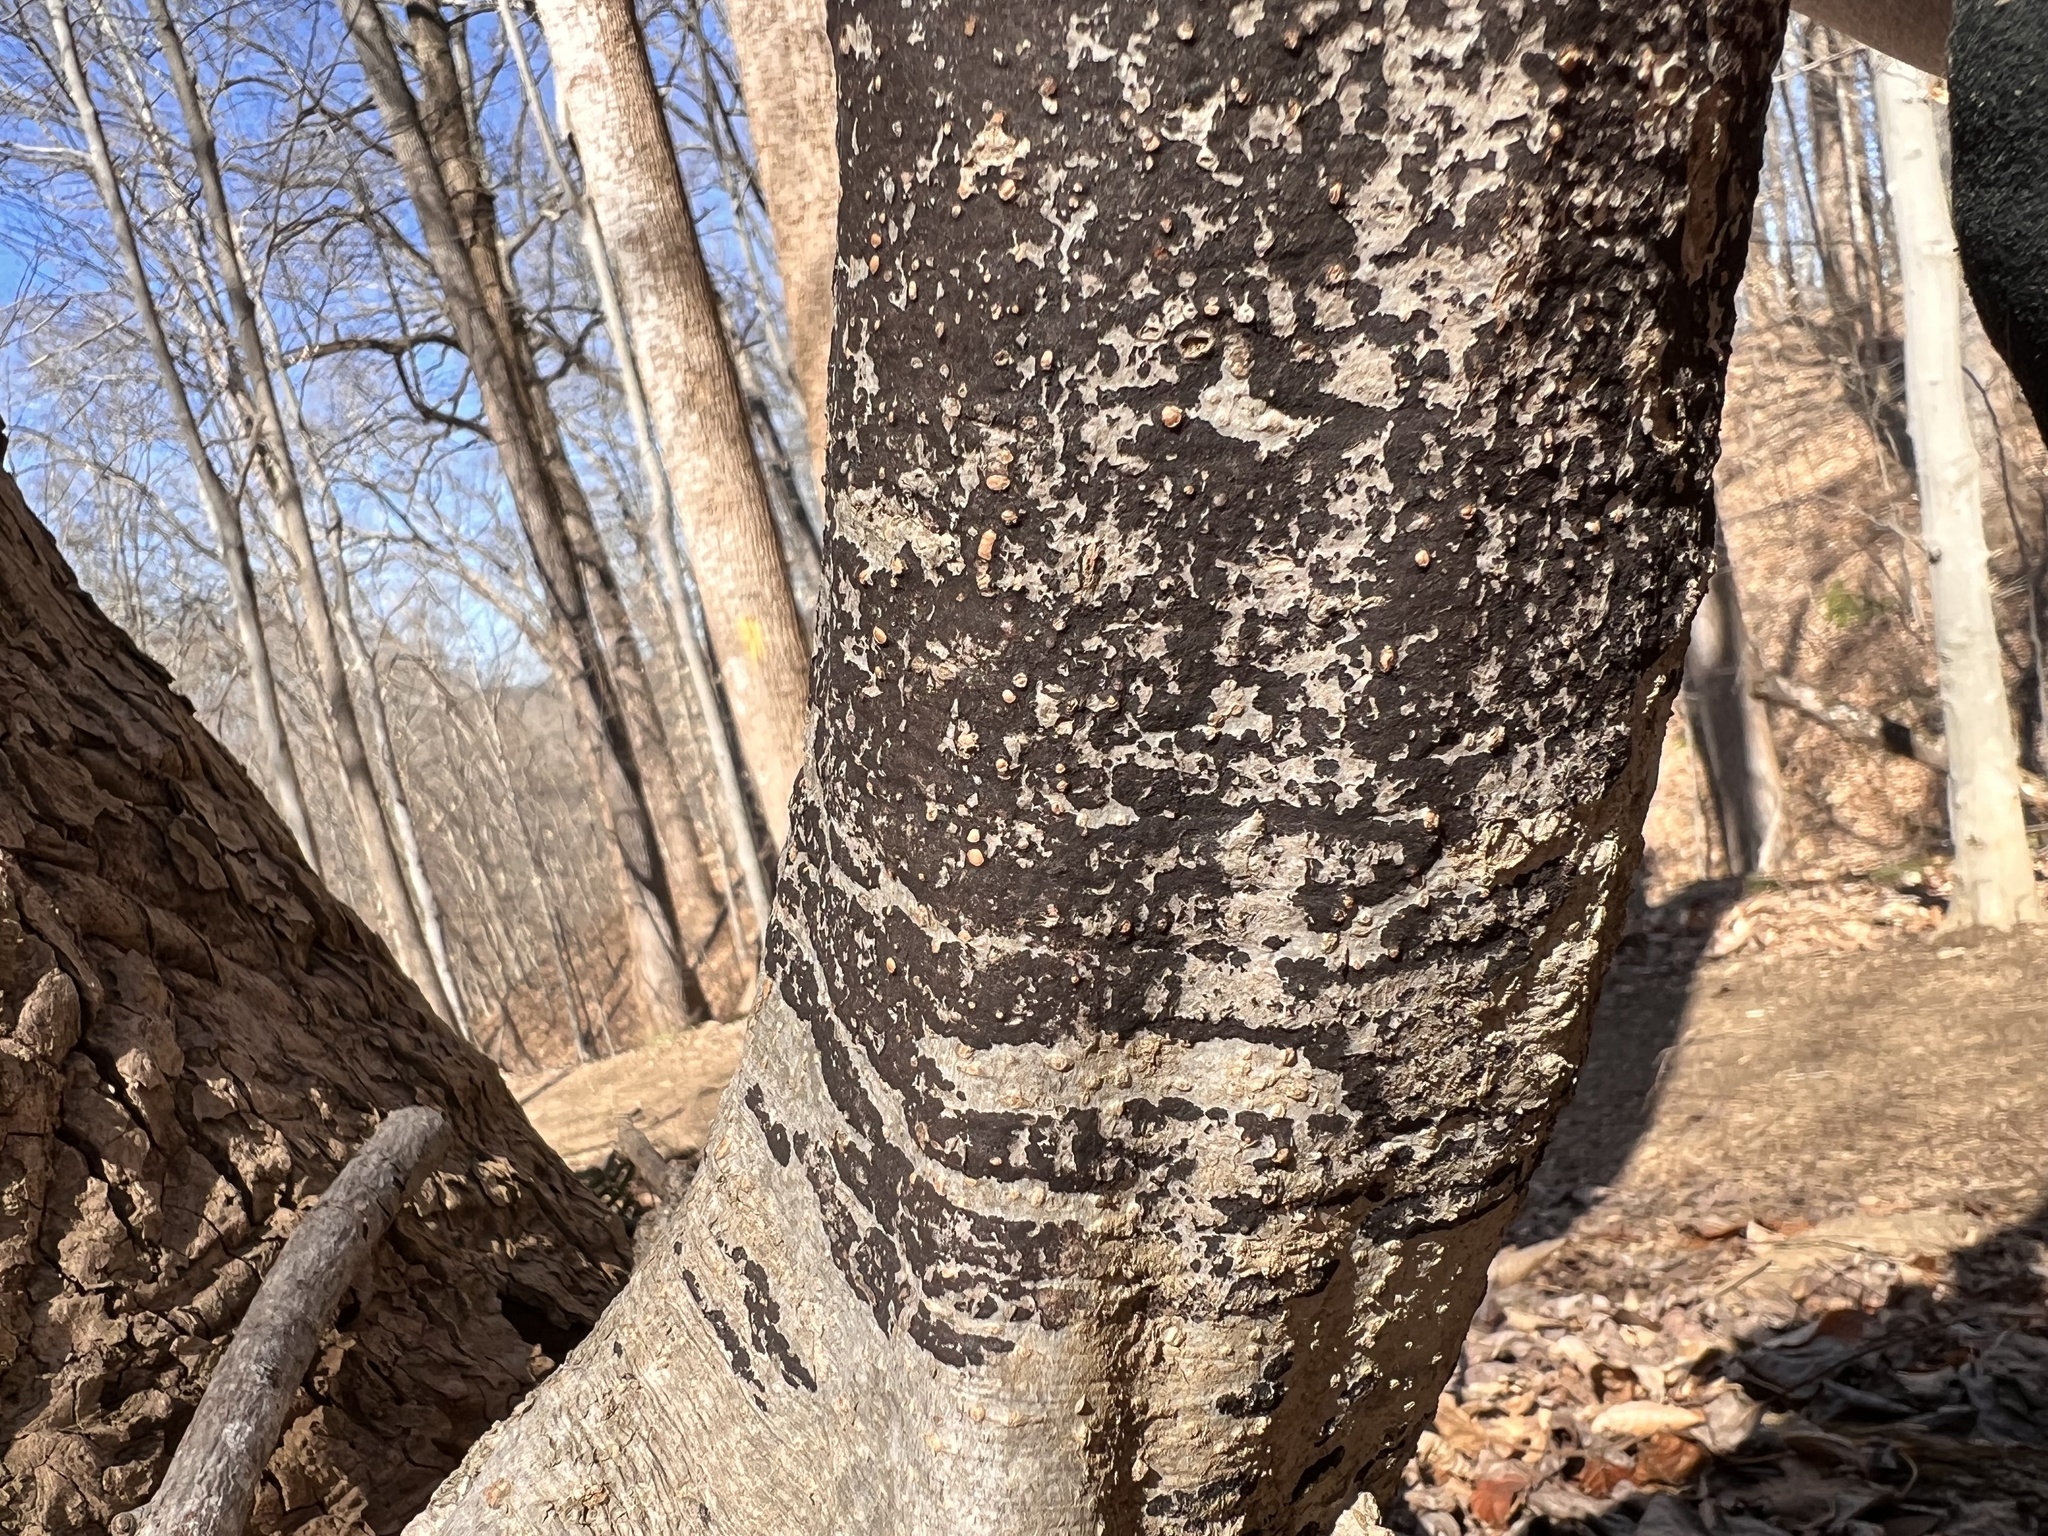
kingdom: Fungi
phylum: Ascomycota
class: Leotiomycetes
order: Rhytismatales
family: Ascodichaenaceae
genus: Ascodichaena
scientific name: Ascodichaena rugosa
